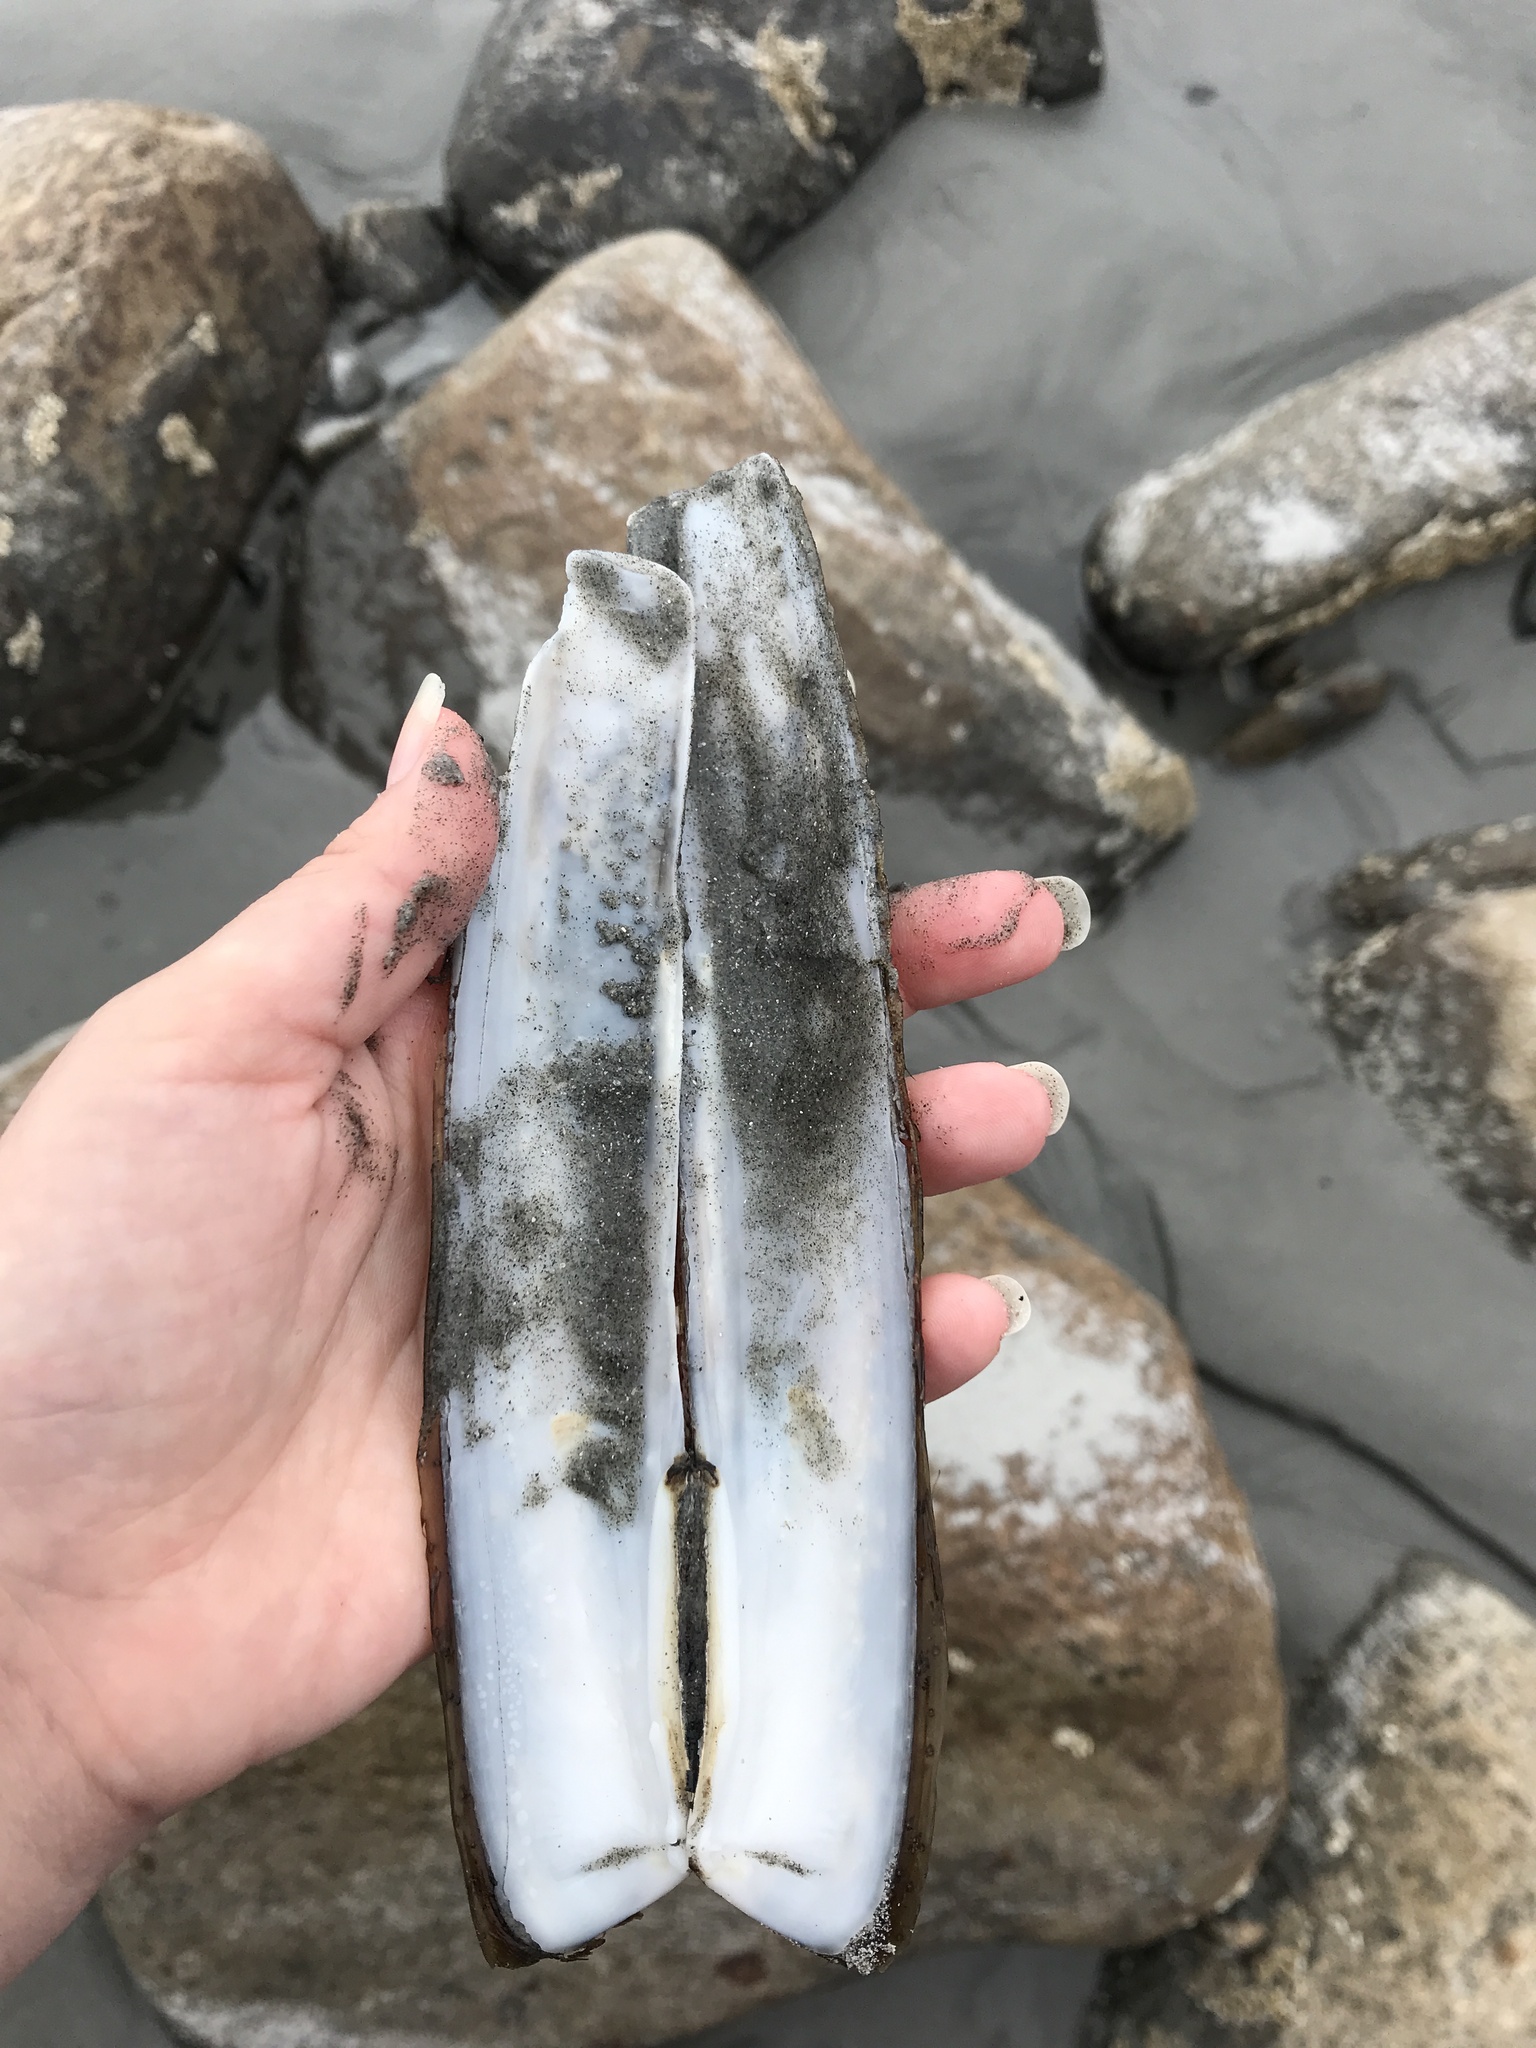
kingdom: Animalia
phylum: Mollusca
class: Bivalvia
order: Adapedonta
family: Pharidae
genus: Ensis
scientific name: Ensis leei
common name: American jack knife clam
